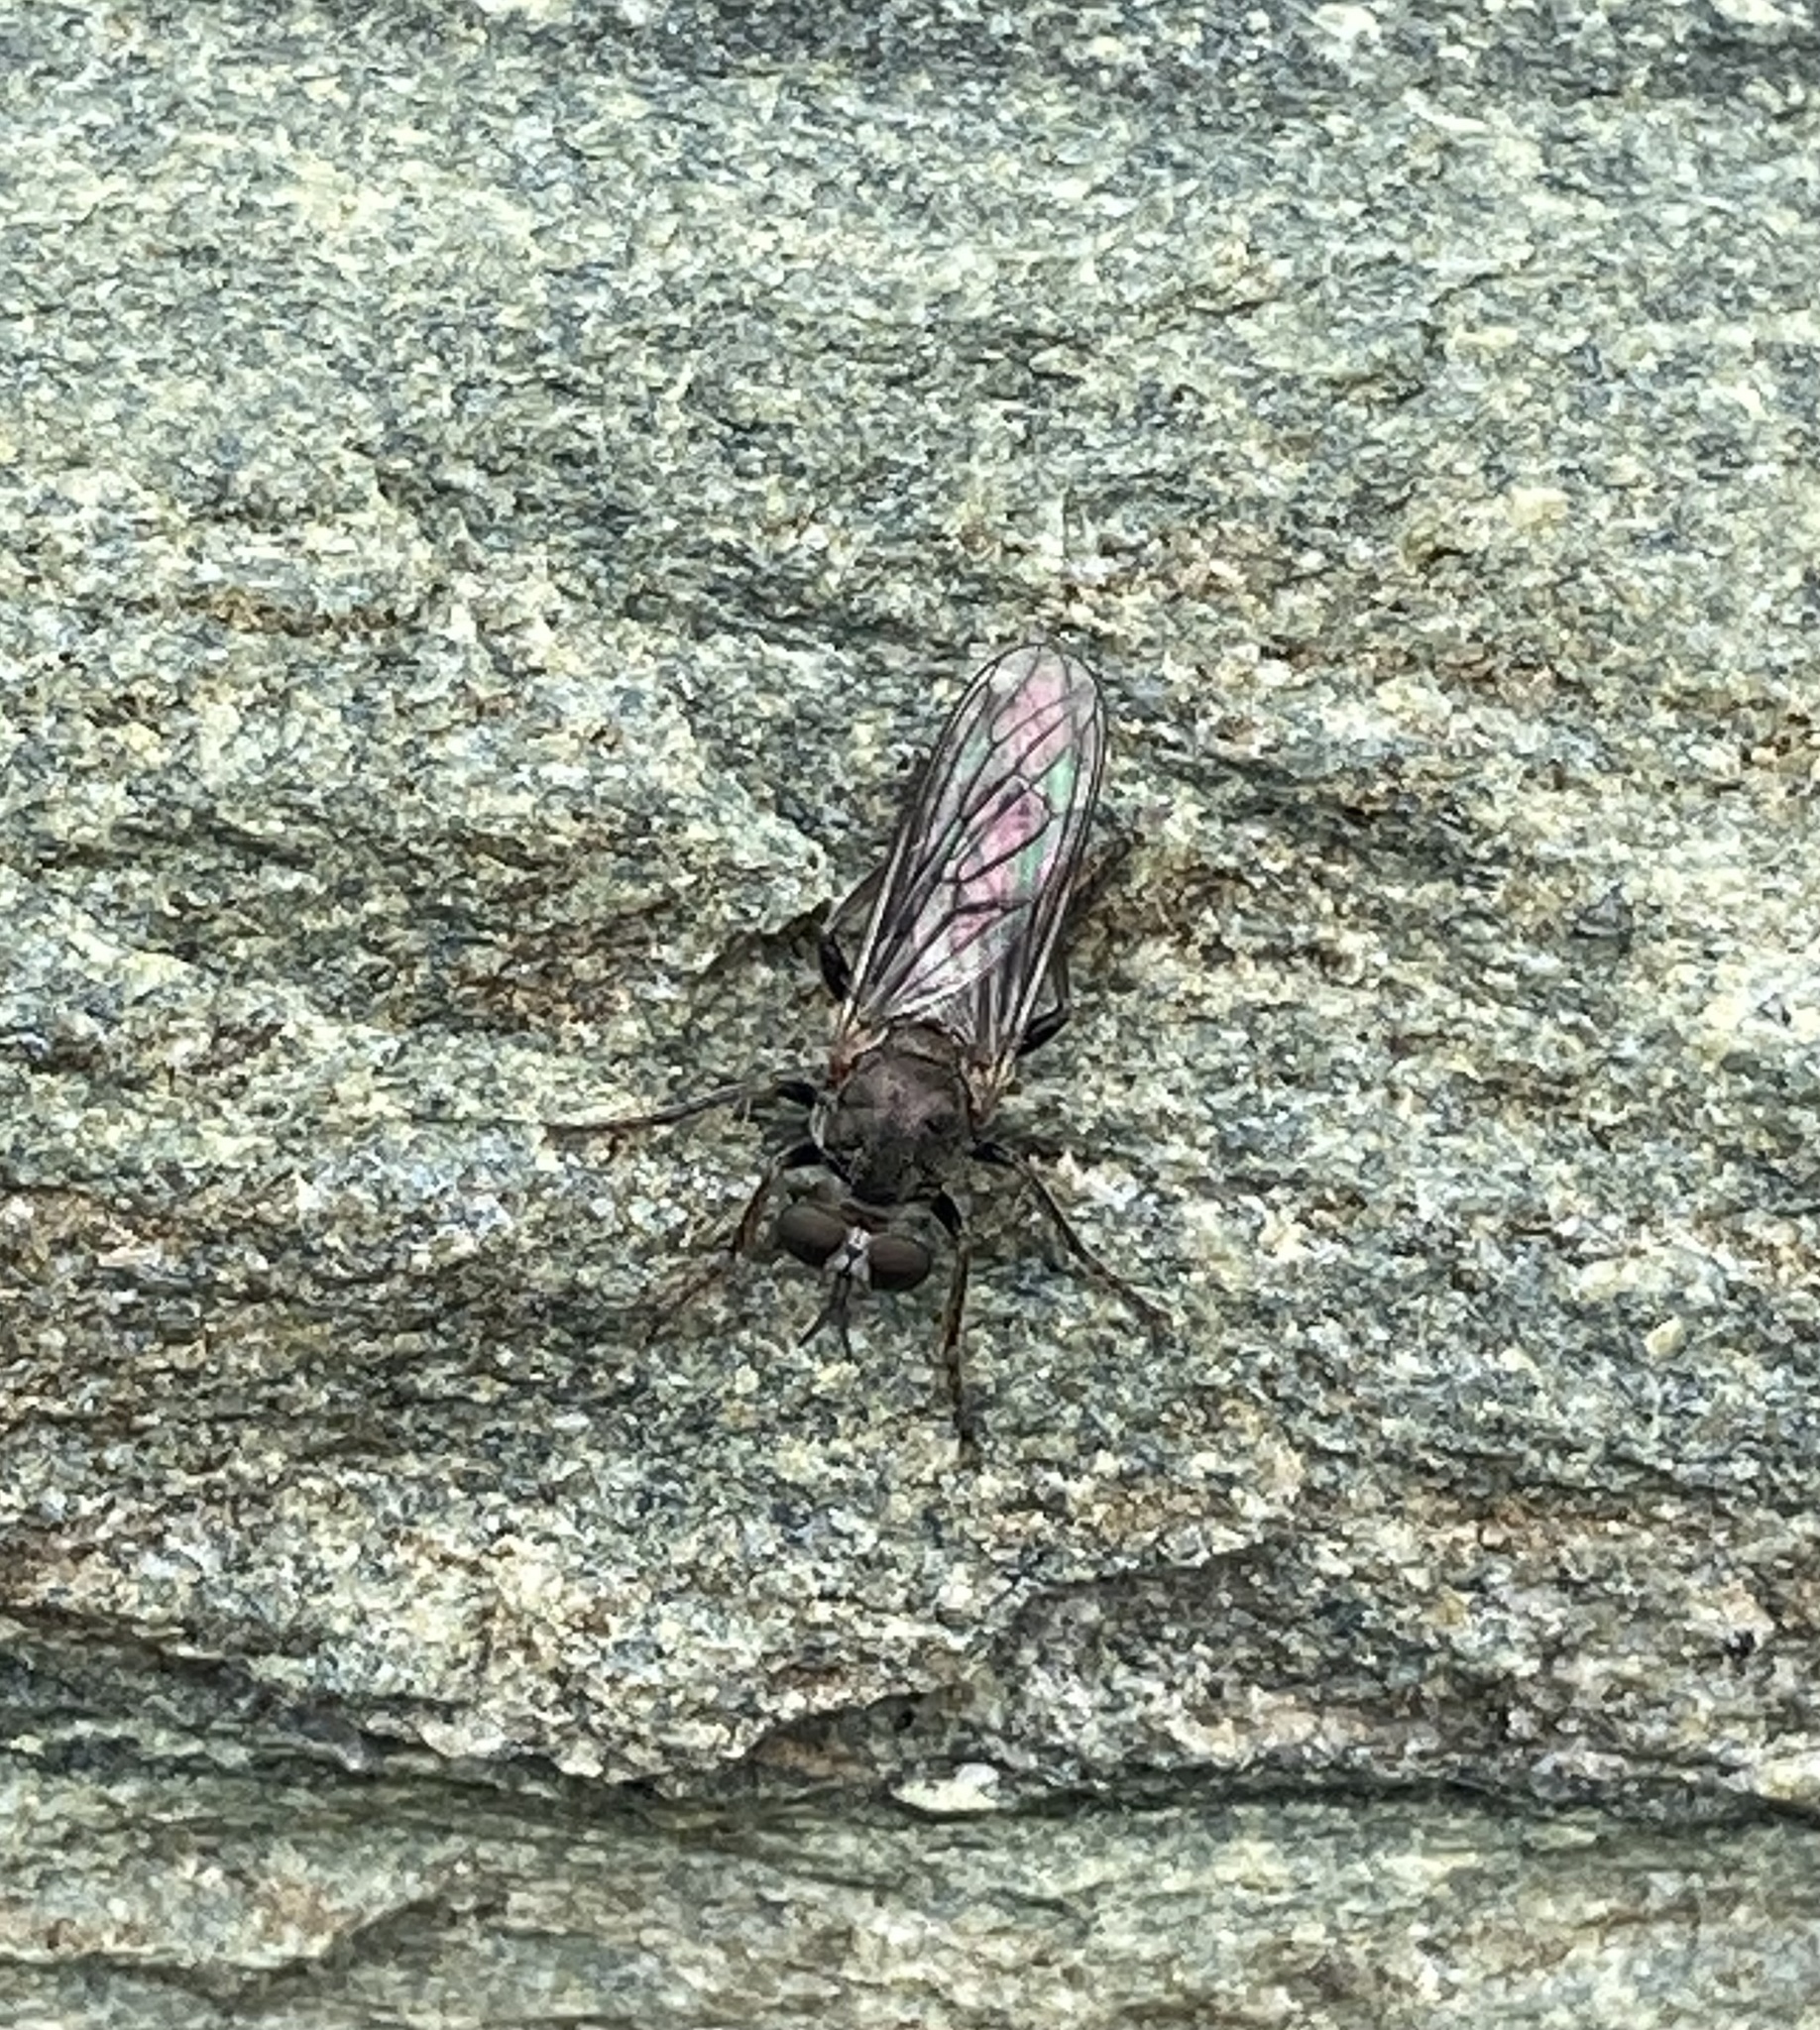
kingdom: Animalia
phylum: Arthropoda
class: Insecta
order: Diptera
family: Asilidae
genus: Atomosia
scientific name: Atomosia puella
